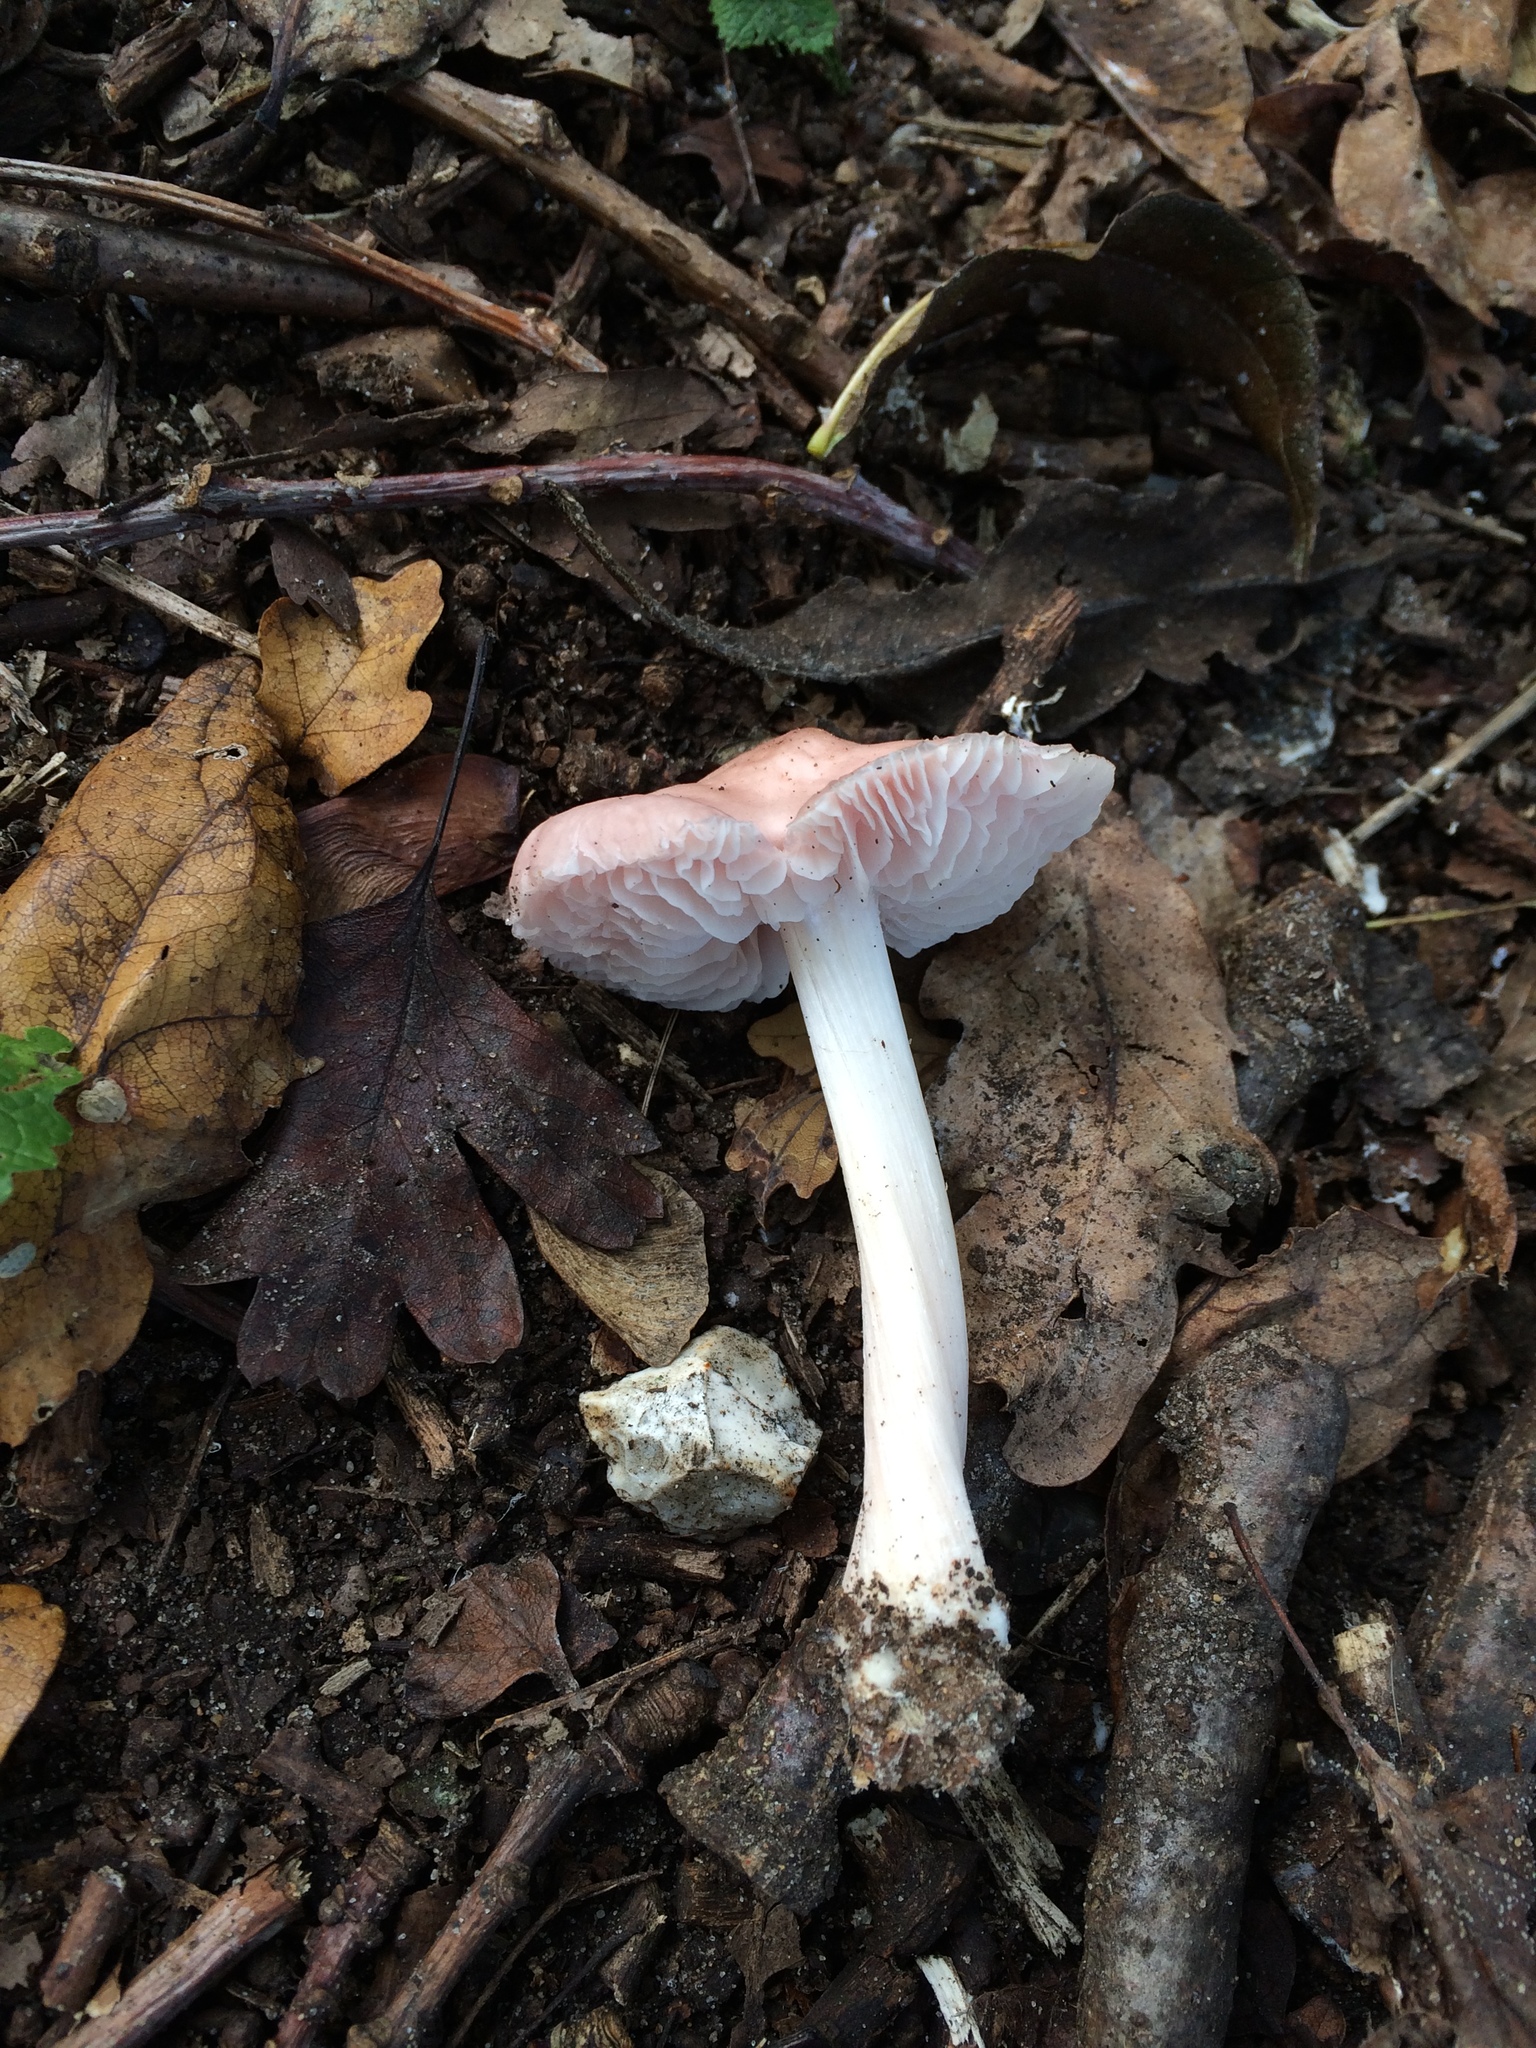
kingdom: Fungi
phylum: Basidiomycota
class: Agaricomycetes
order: Agaricales
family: Mycenaceae
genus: Mycena
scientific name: Mycena rosea
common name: Rosy bonnet
